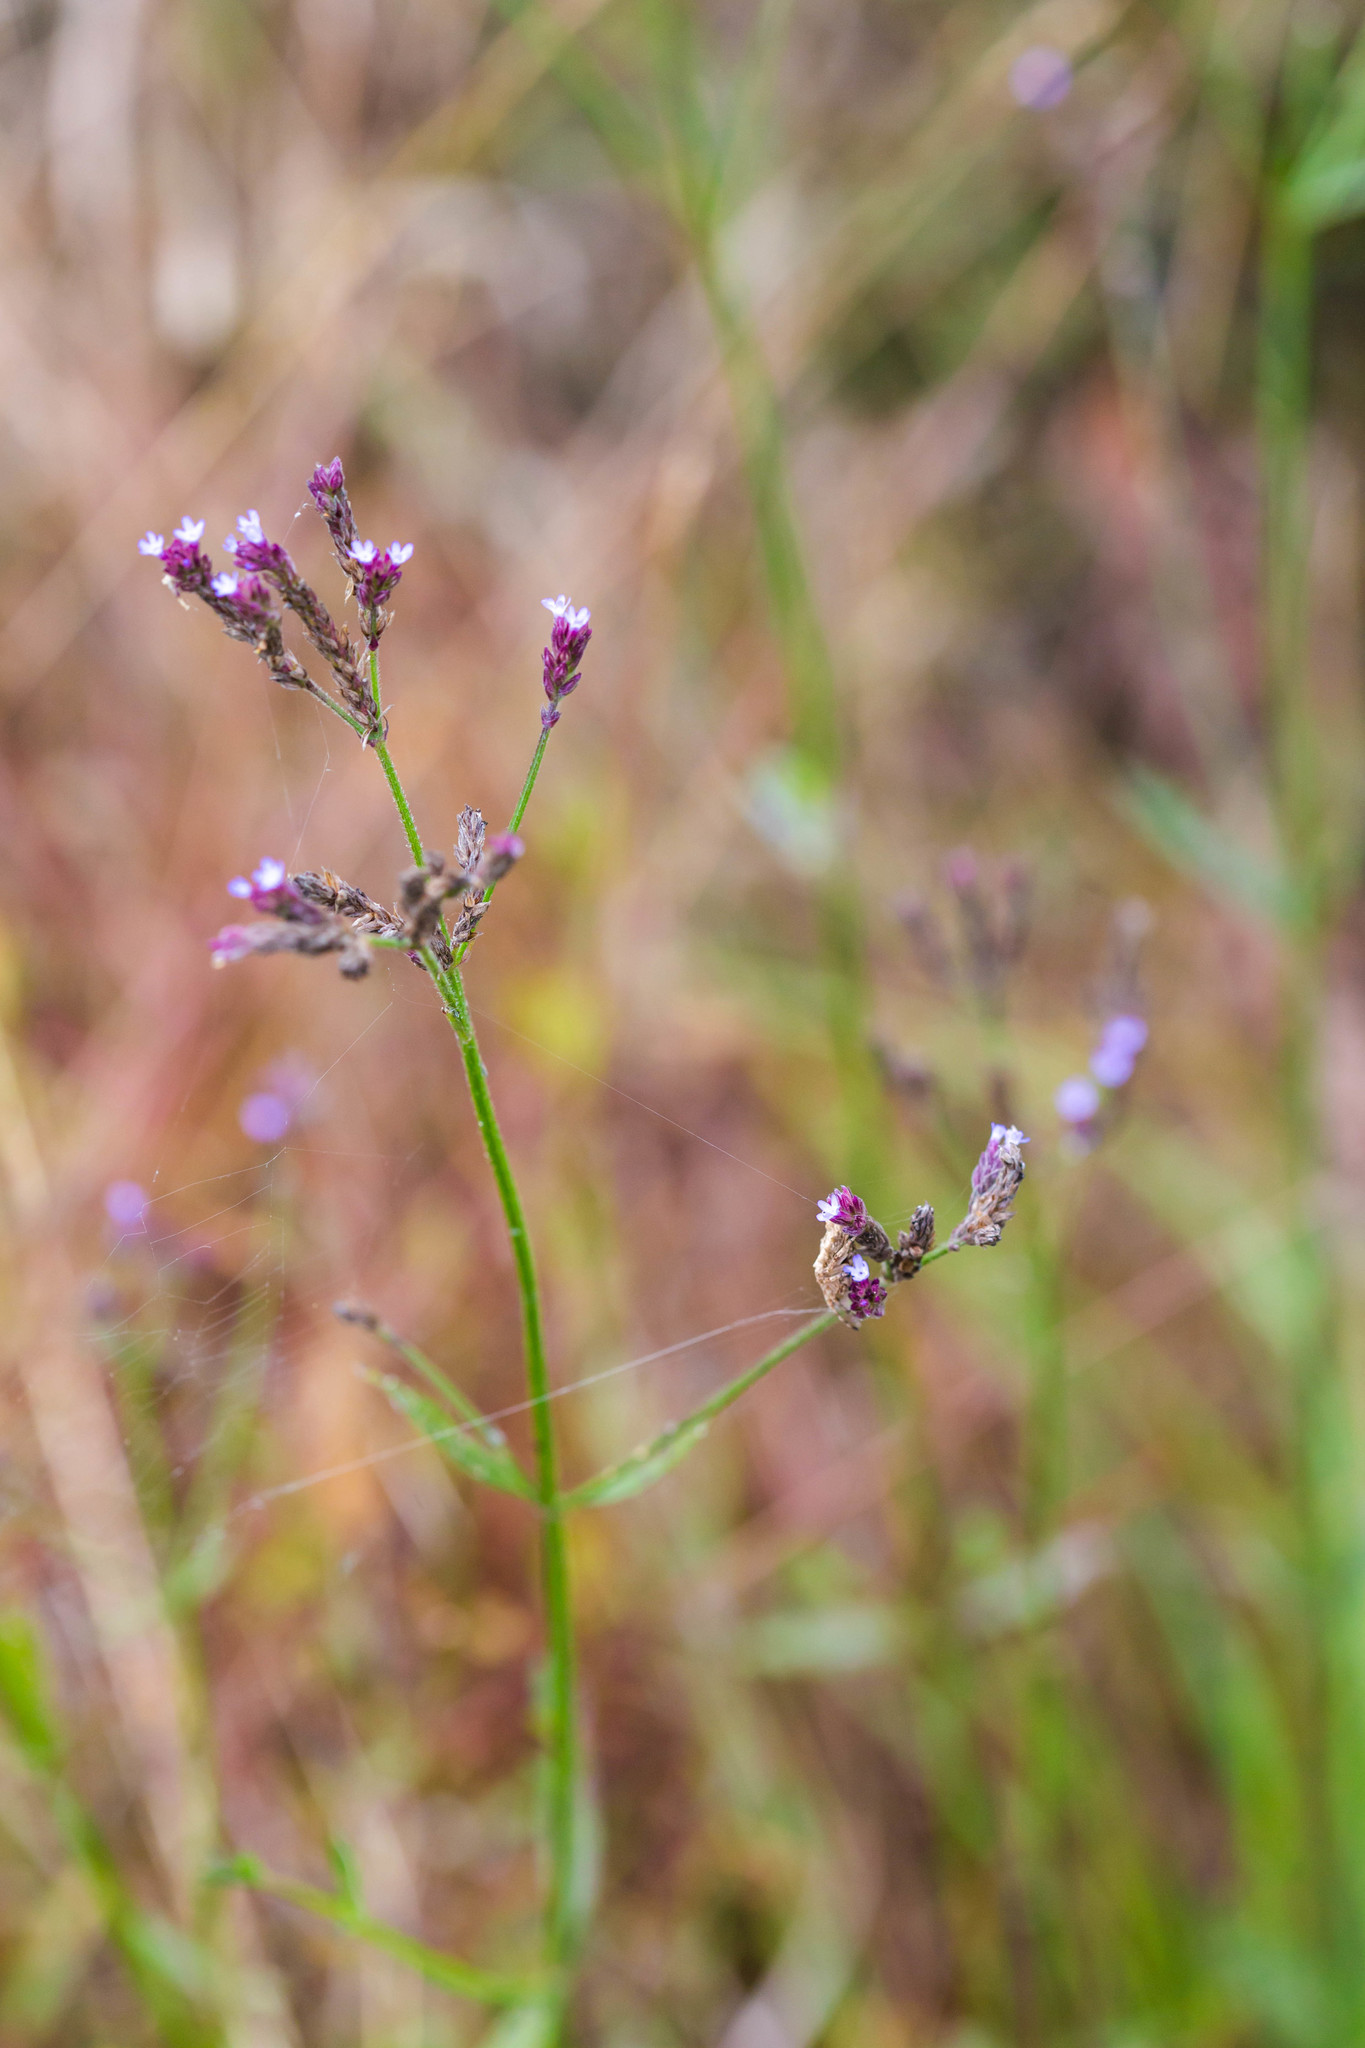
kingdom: Plantae
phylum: Tracheophyta
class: Magnoliopsida
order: Lamiales
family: Verbenaceae
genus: Verbena
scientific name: Verbena brasiliensis
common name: Brazilian vervain
